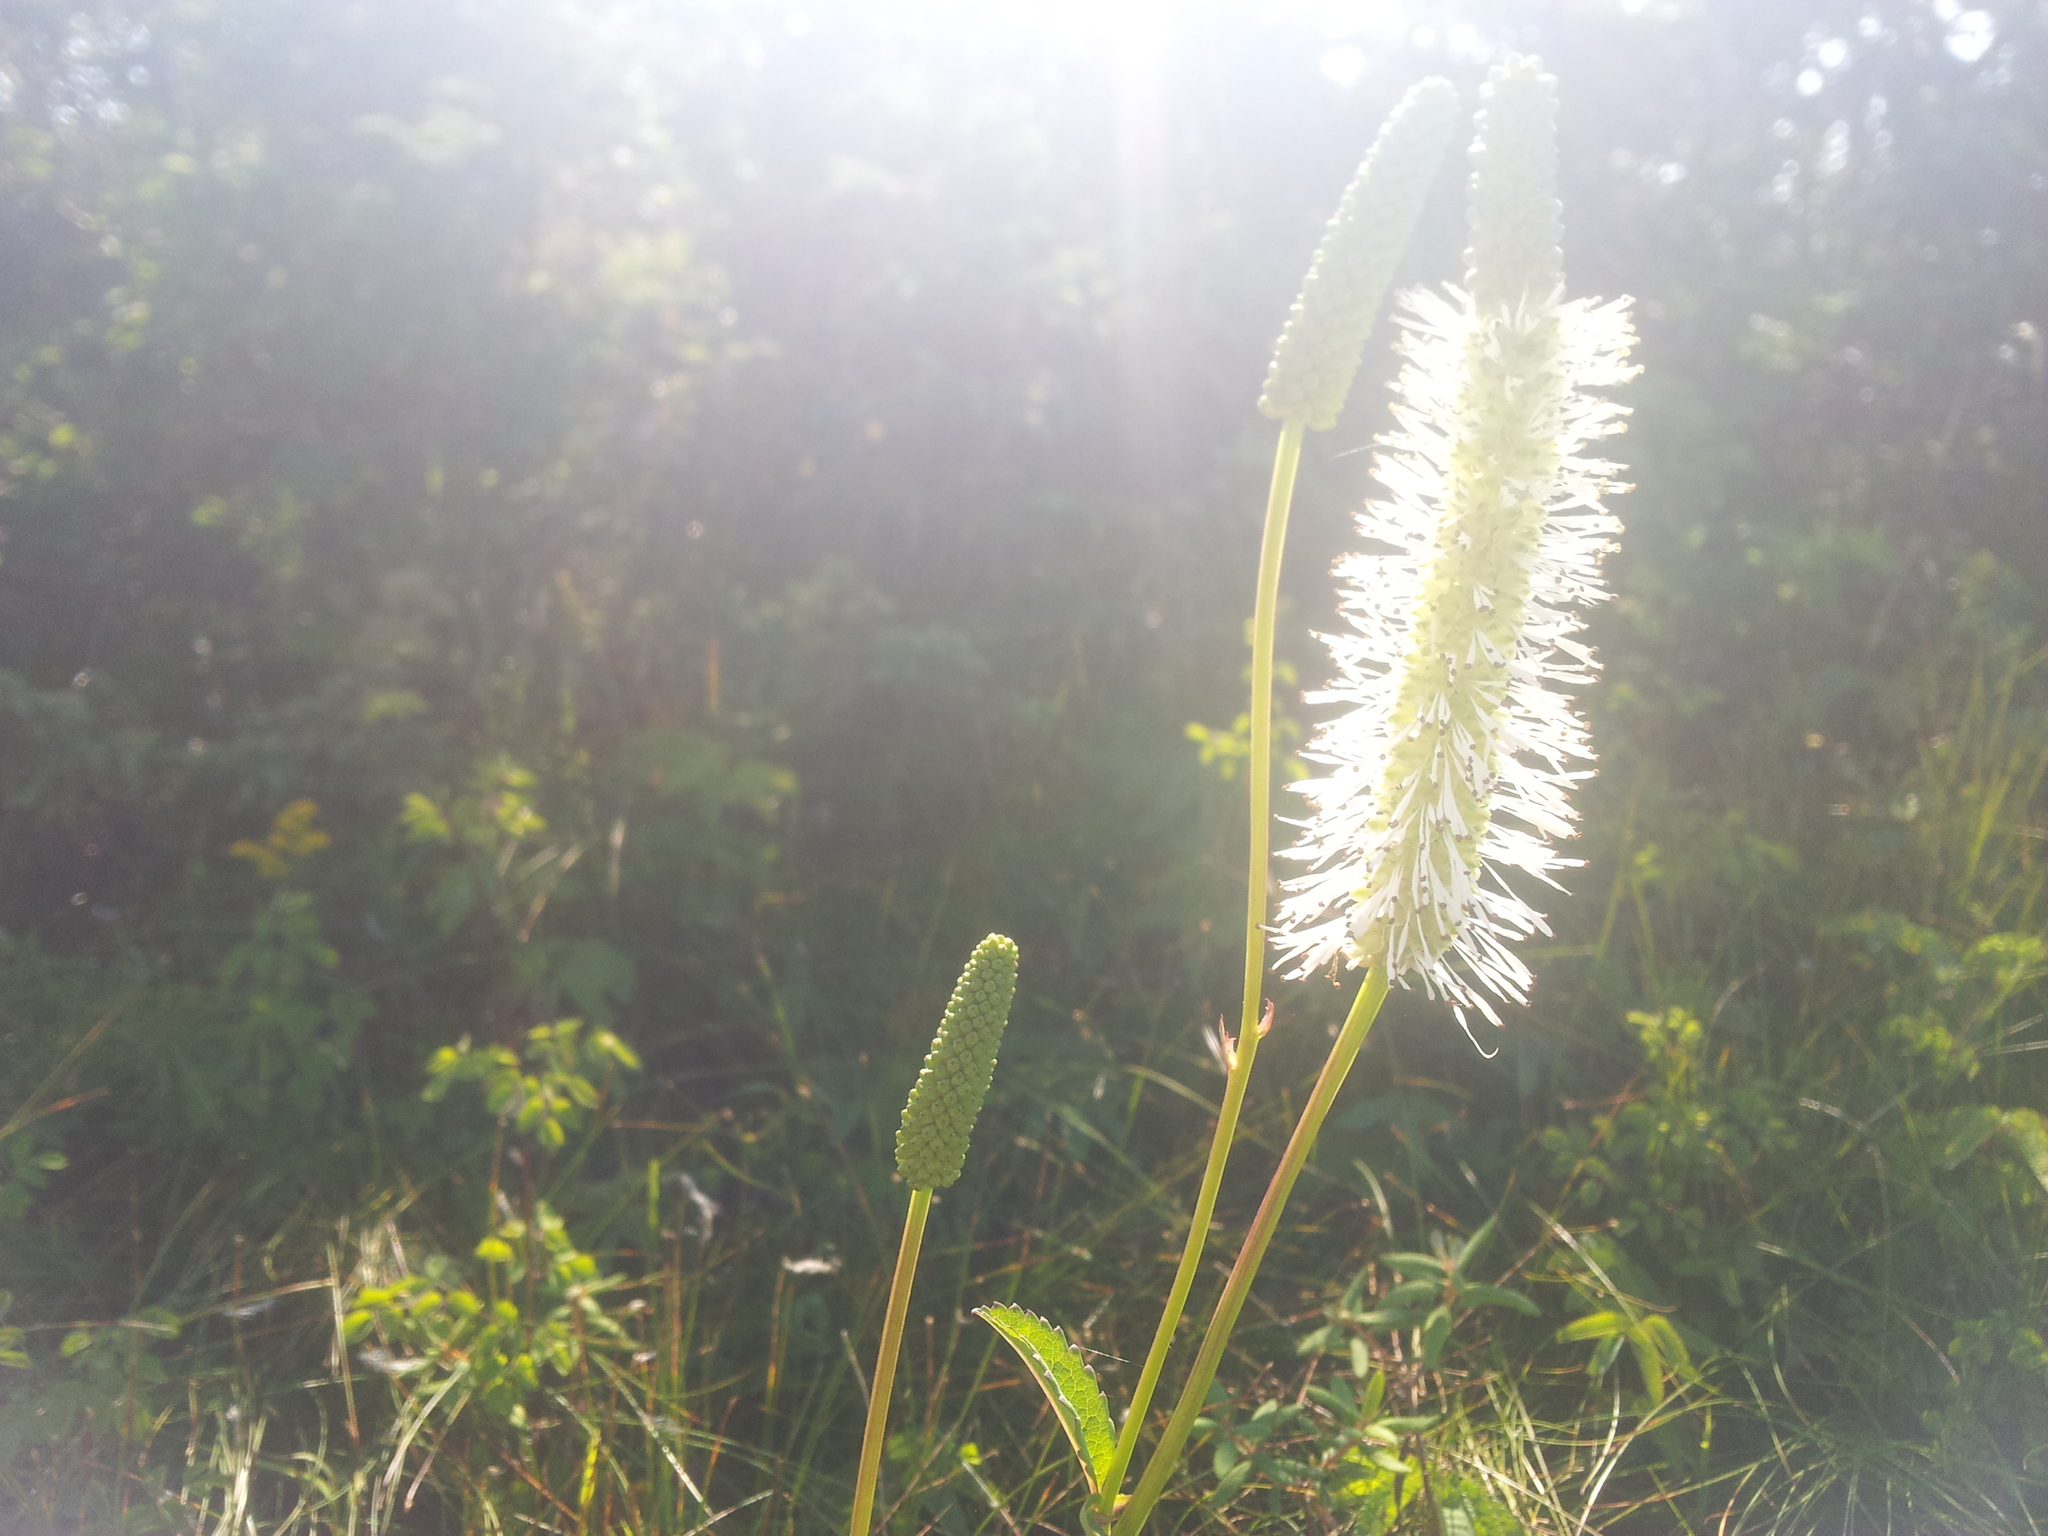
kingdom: Plantae
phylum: Tracheophyta
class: Magnoliopsida
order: Rosales
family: Rosaceae
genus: Sanguisorba
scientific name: Sanguisorba canadensis
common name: White burnet
